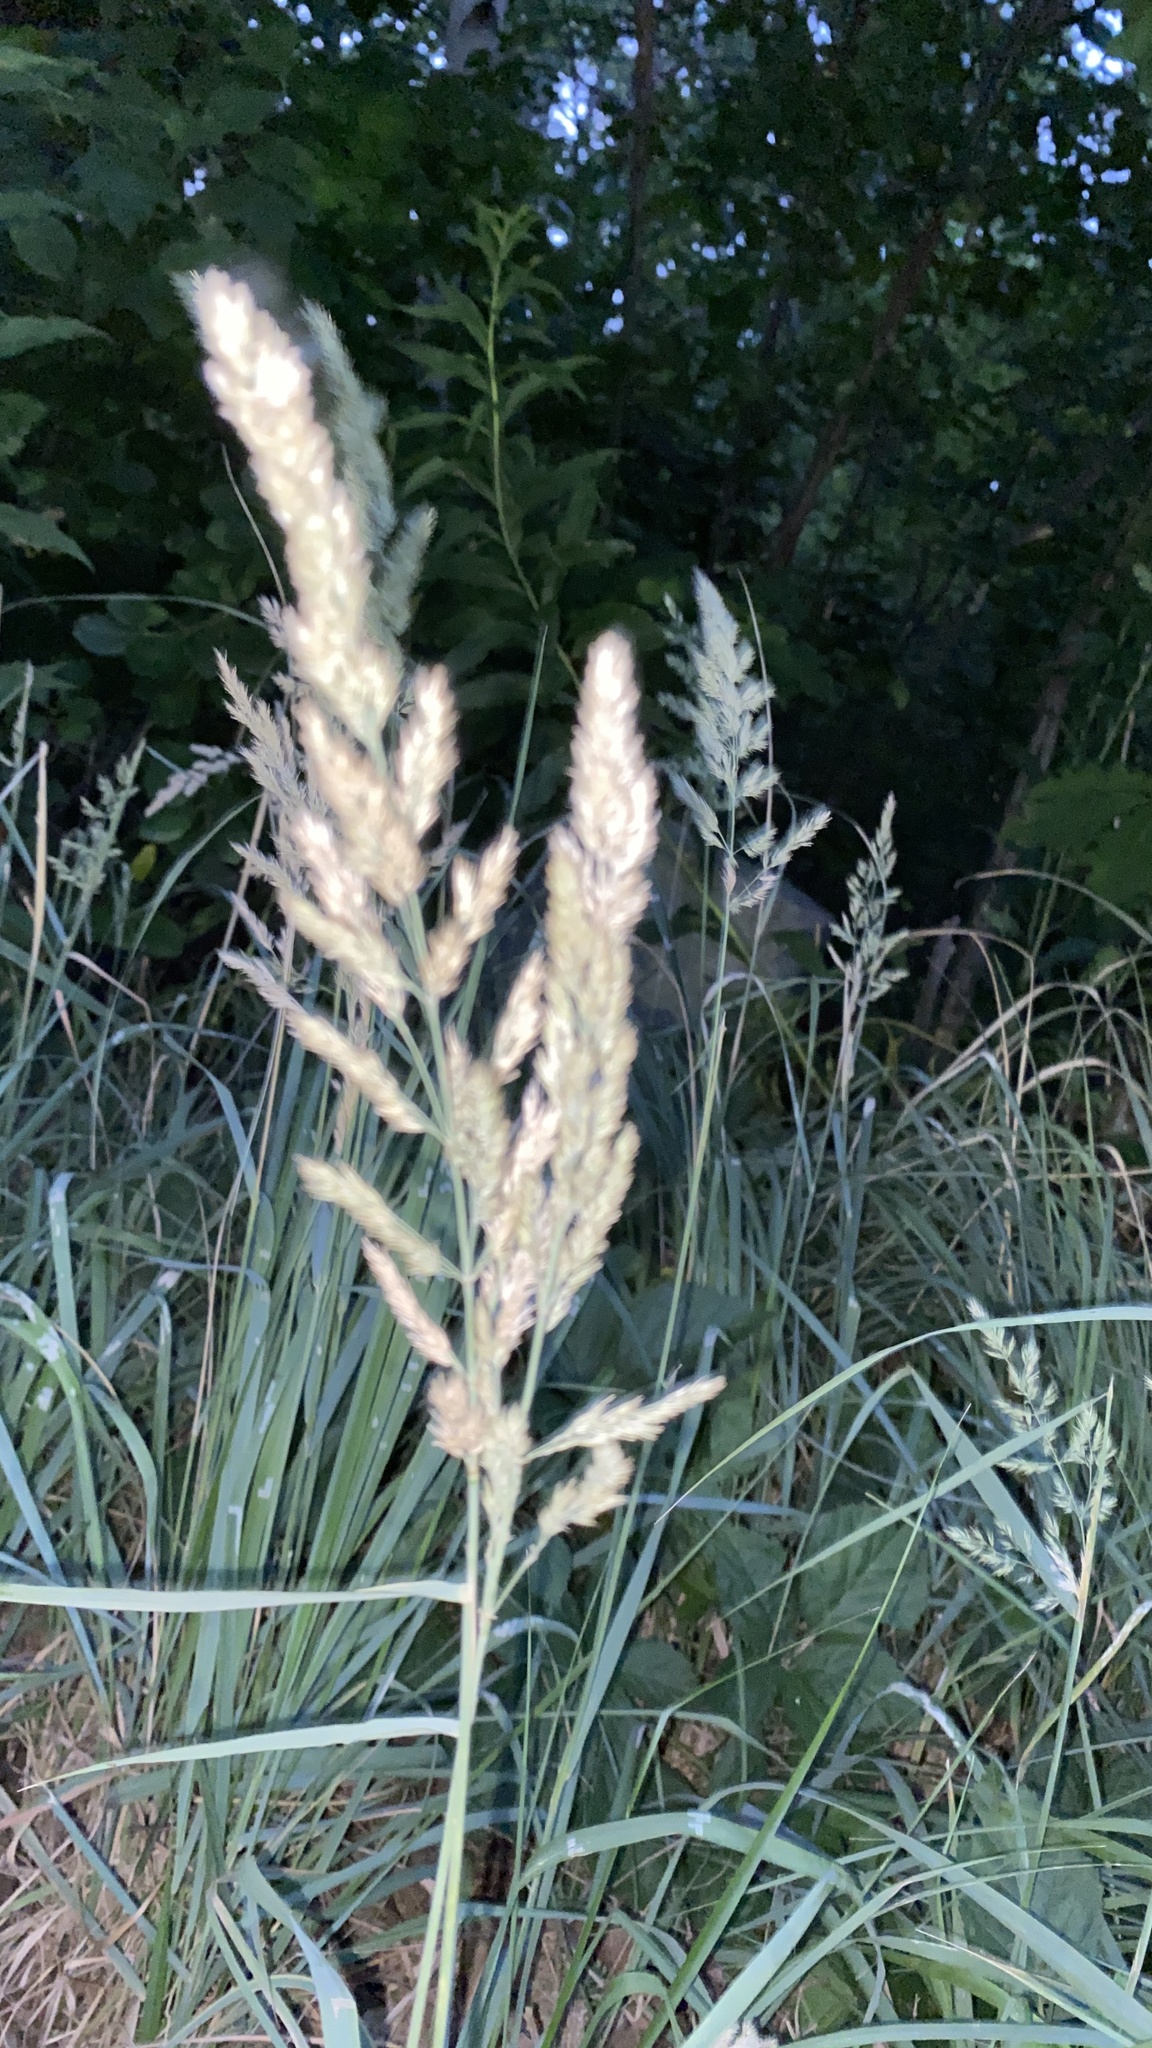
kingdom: Plantae
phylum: Tracheophyta
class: Liliopsida
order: Poales
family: Poaceae
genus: Calamagrostis
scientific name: Calamagrostis epigejos
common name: Wood small-reed
